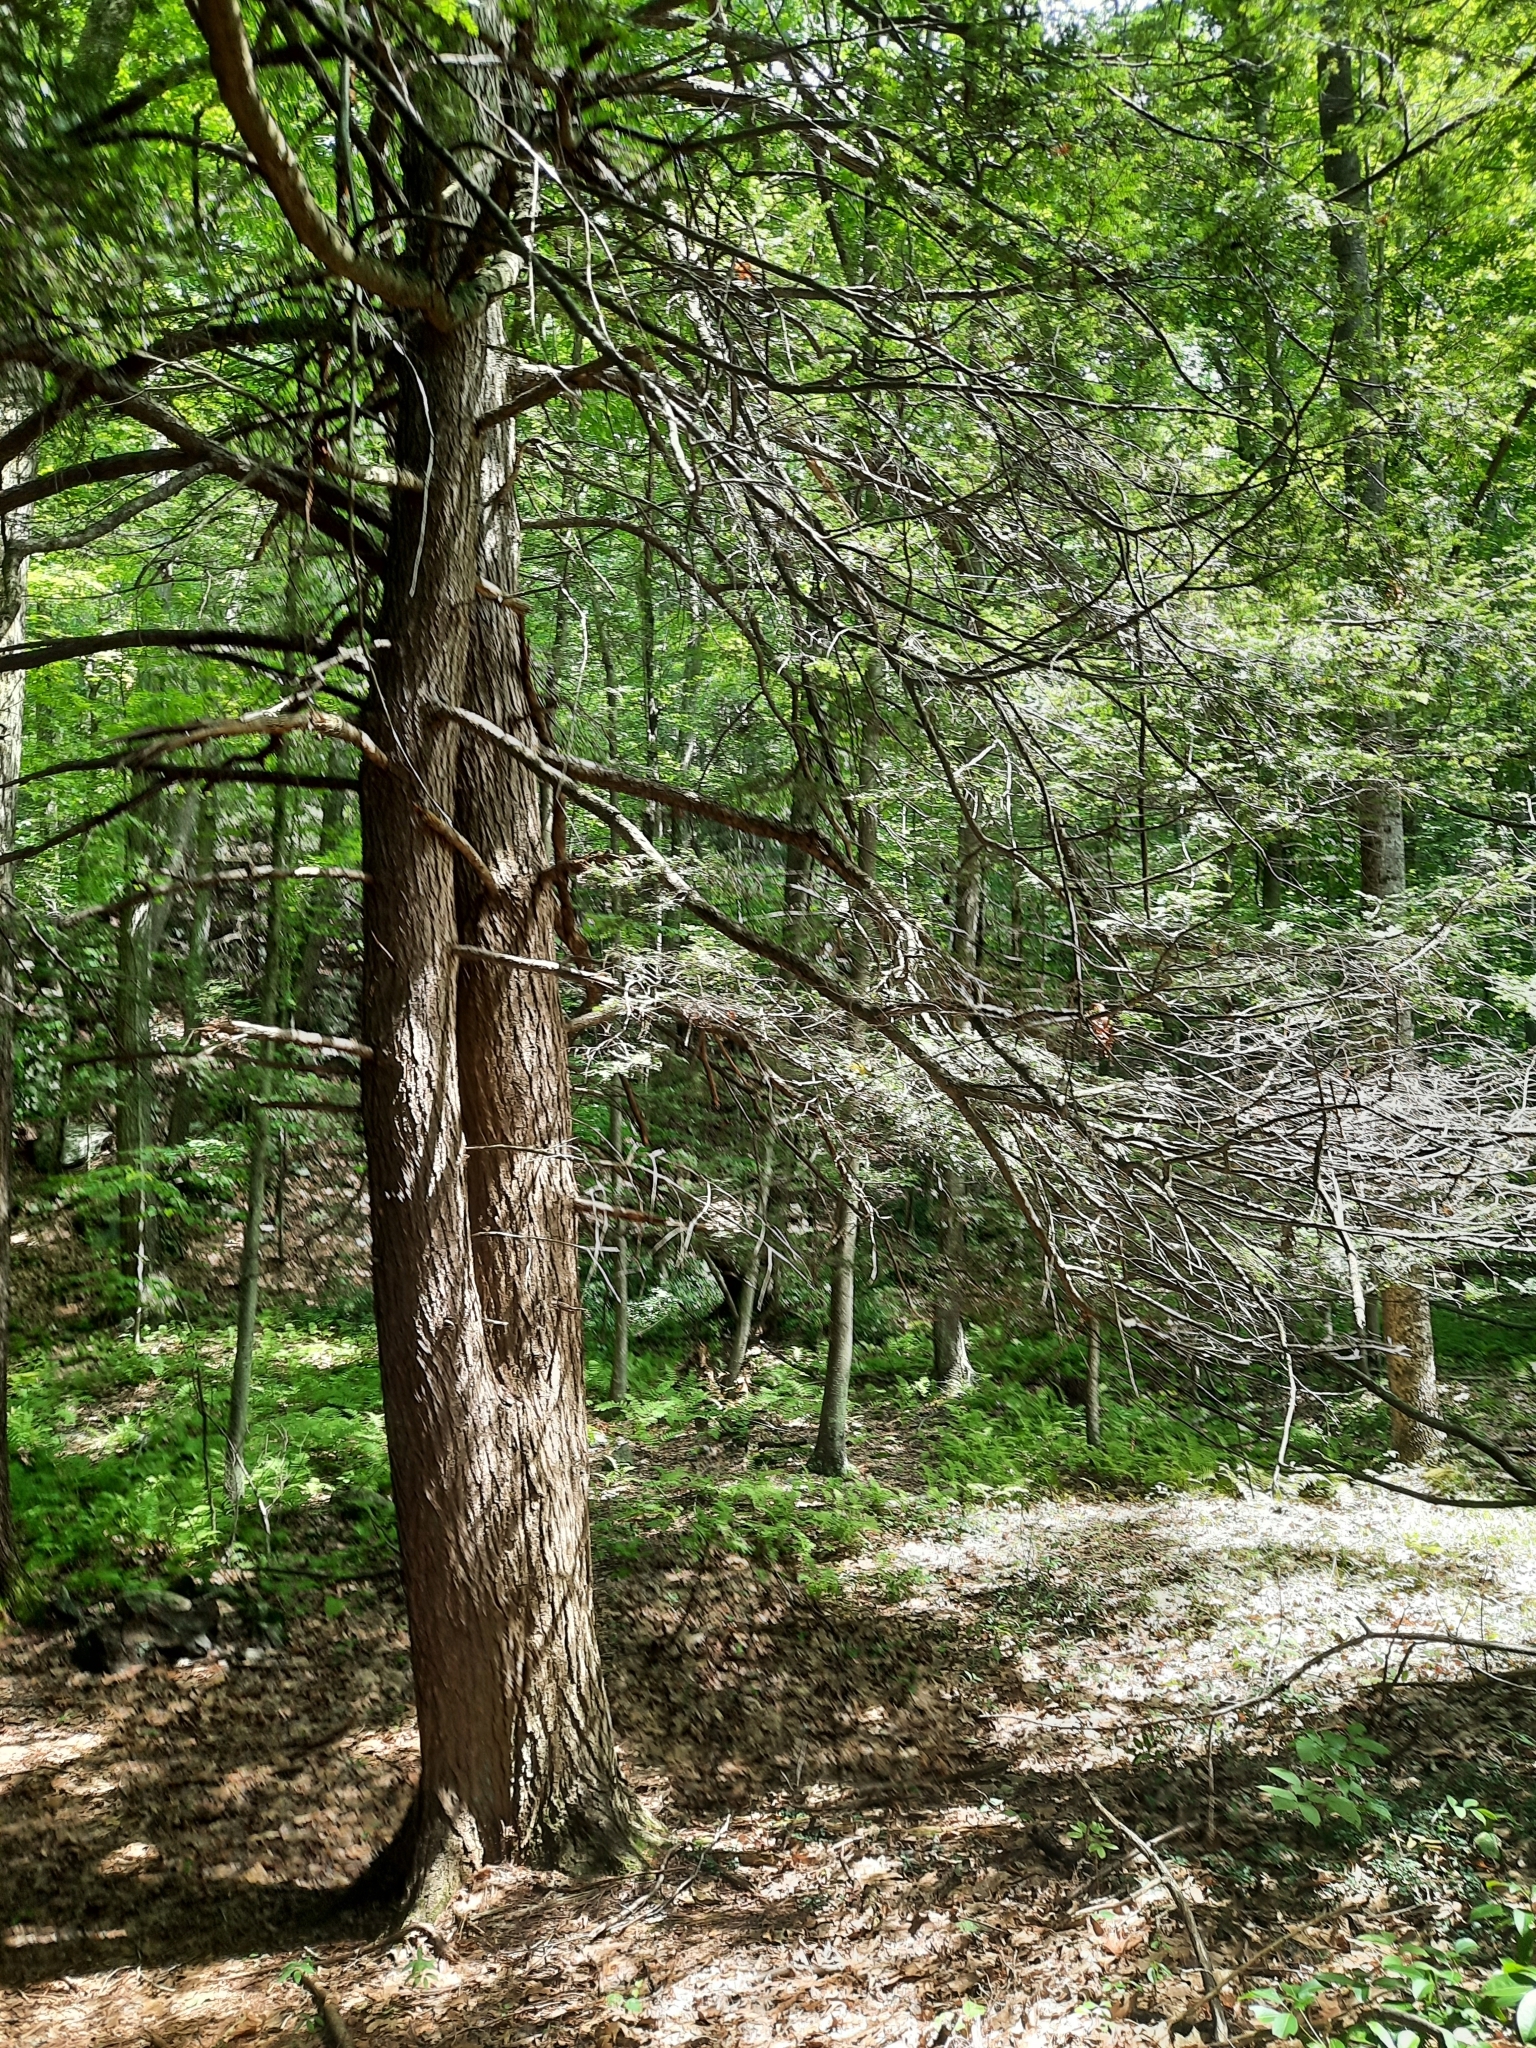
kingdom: Plantae
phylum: Tracheophyta
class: Pinopsida
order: Pinales
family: Pinaceae
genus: Tsuga
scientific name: Tsuga canadensis
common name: Eastern hemlock
